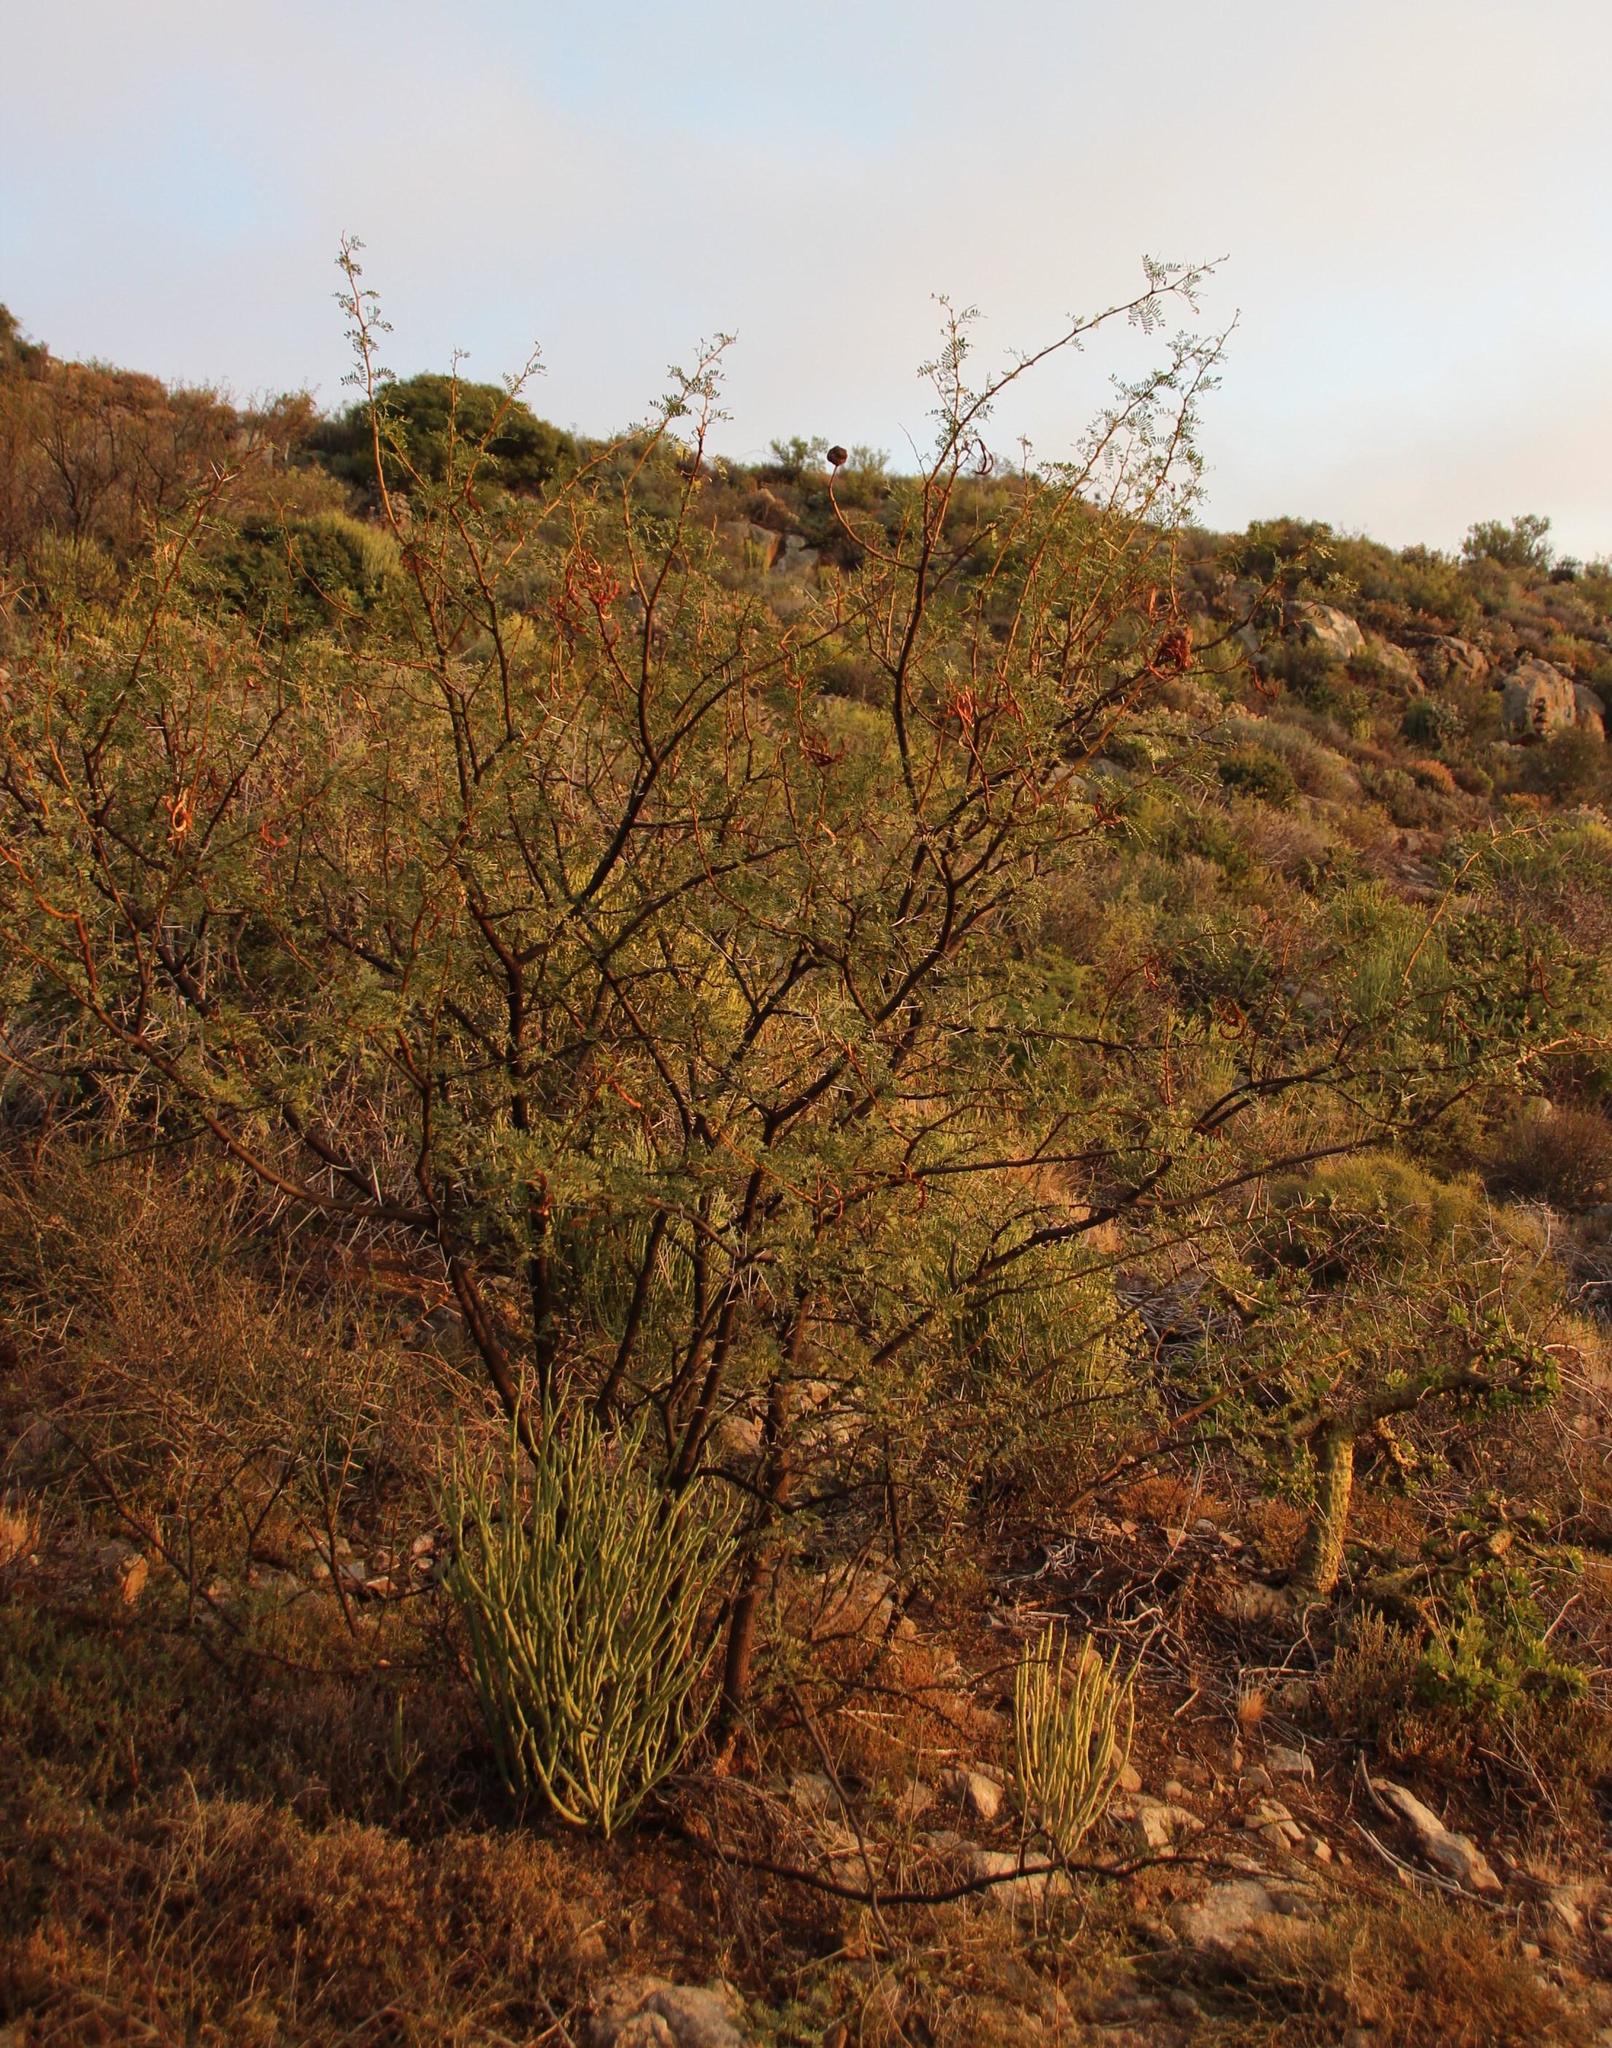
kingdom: Plantae
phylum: Tracheophyta
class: Magnoliopsida
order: Fabales
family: Fabaceae
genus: Vachellia
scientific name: Vachellia karroo
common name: Sweet thorn
